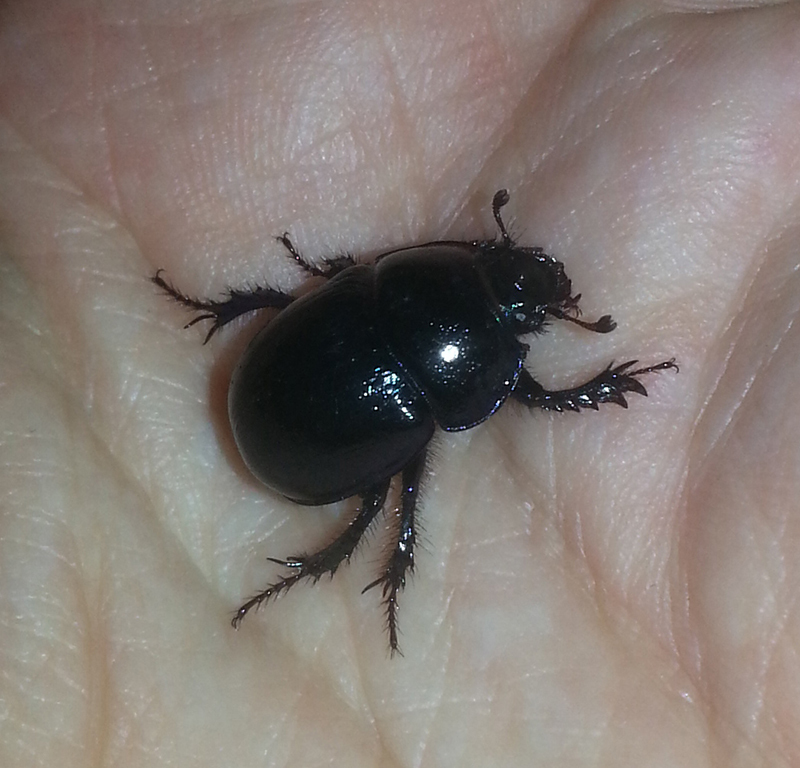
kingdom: Animalia
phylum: Arthropoda
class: Insecta
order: Coleoptera
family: Geotrupidae
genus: Anoplotrupes
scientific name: Anoplotrupes stercorosus
